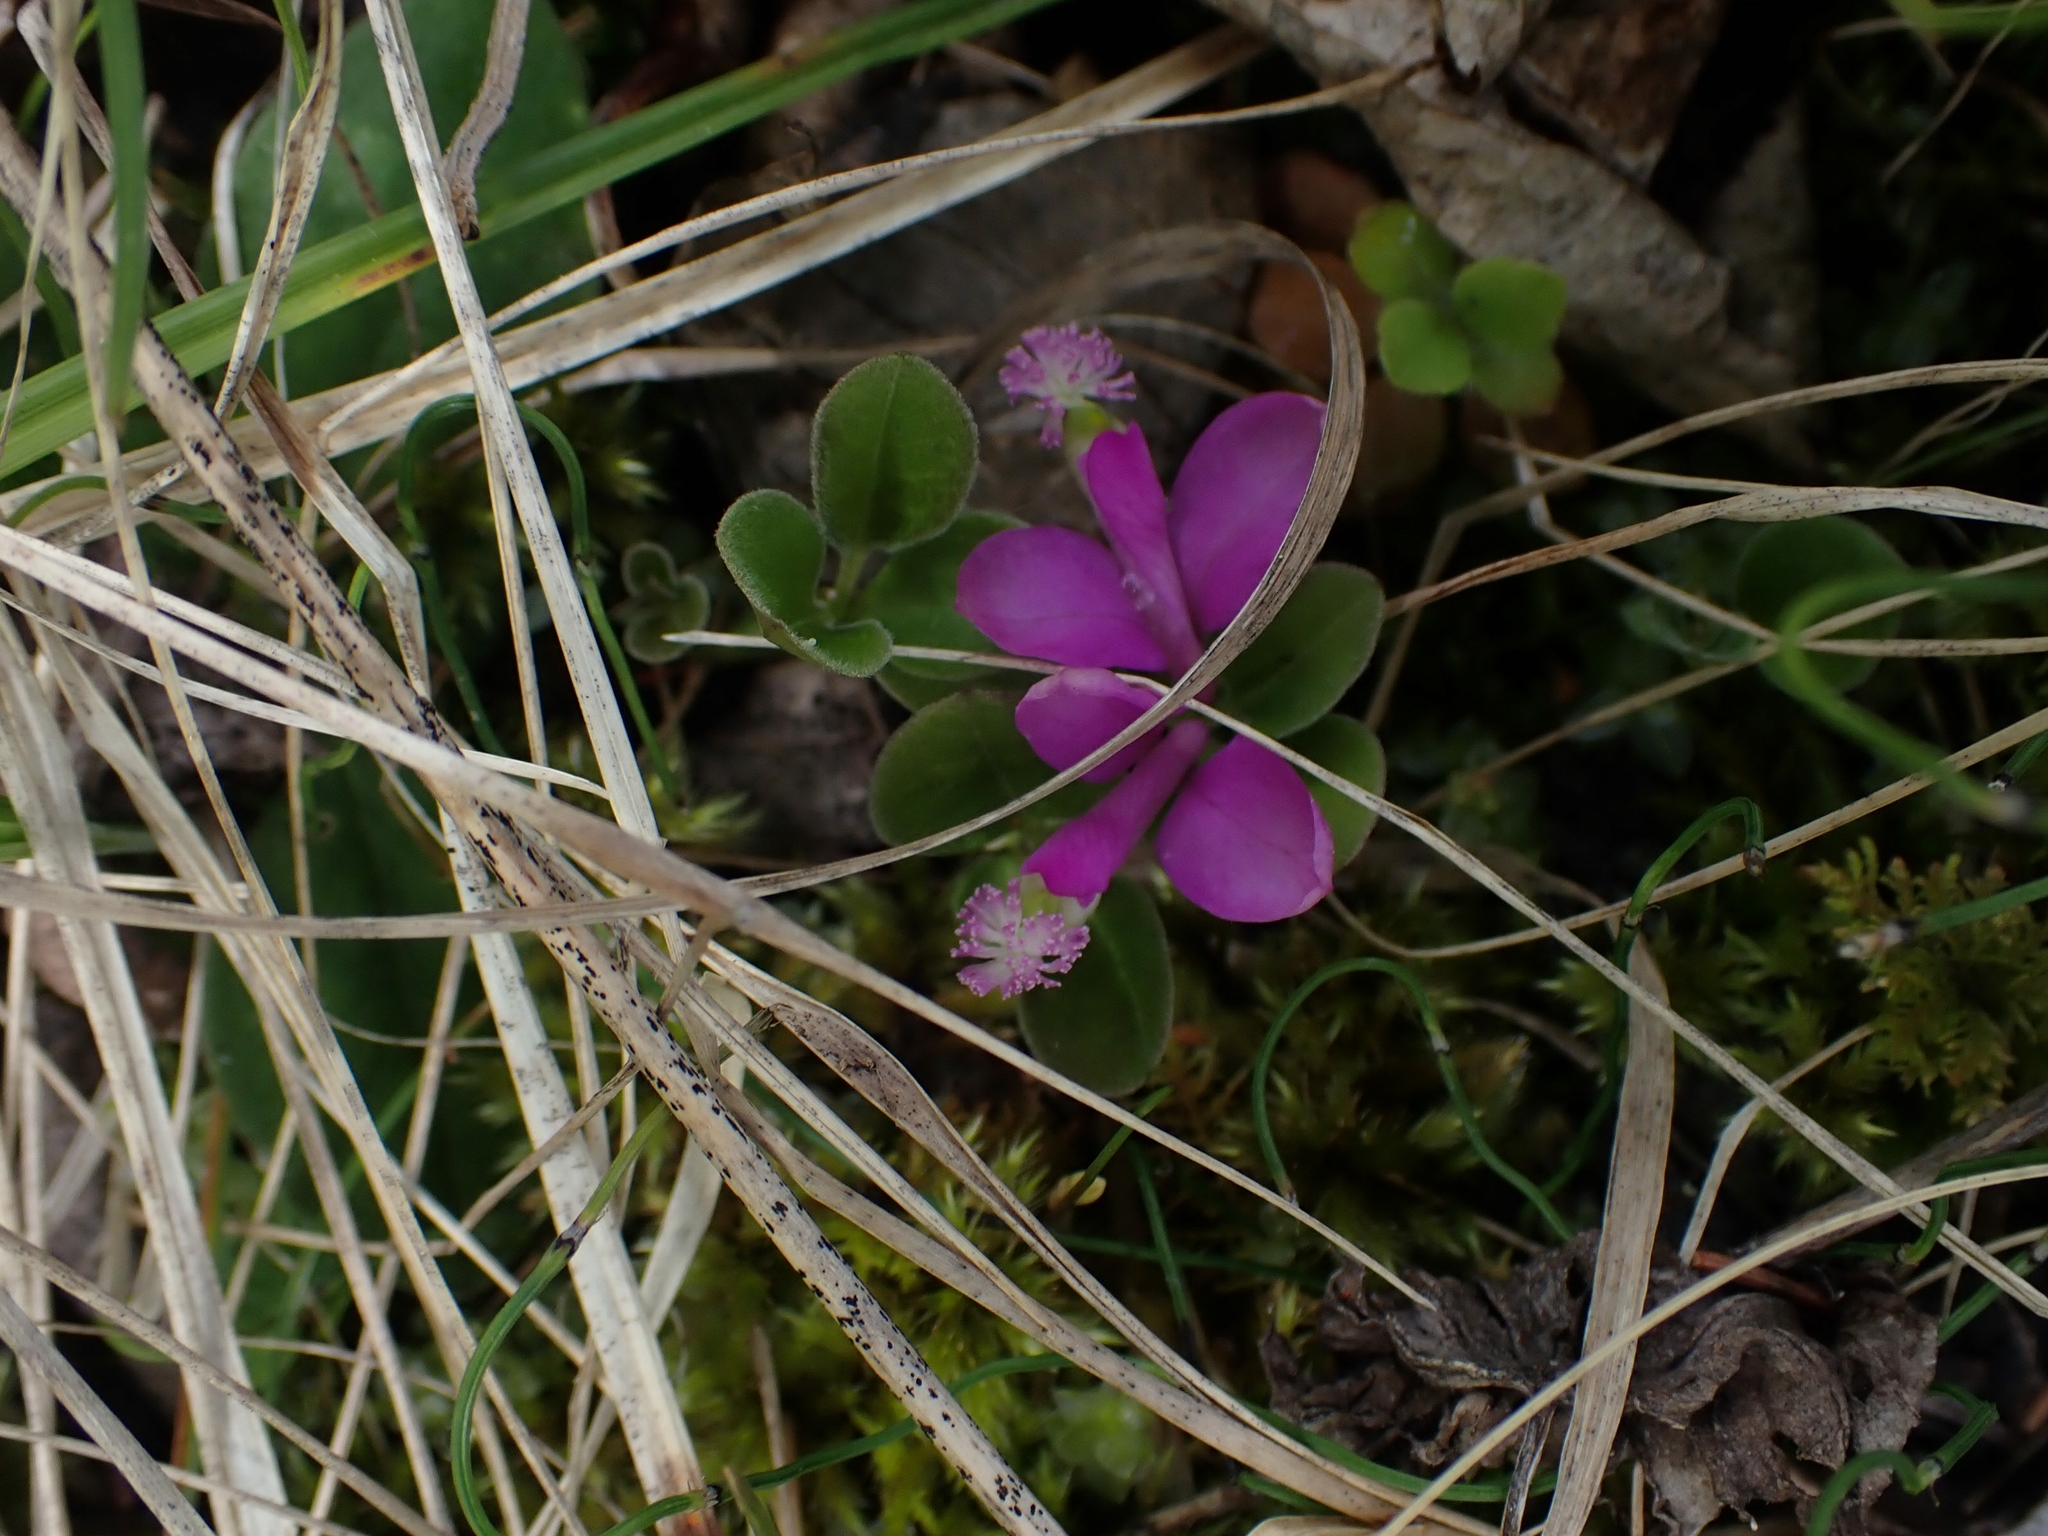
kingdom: Plantae
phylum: Tracheophyta
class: Magnoliopsida
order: Fabales
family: Polygalaceae
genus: Polygaloides
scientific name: Polygaloides paucifolia
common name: Bird-on-the-wing
